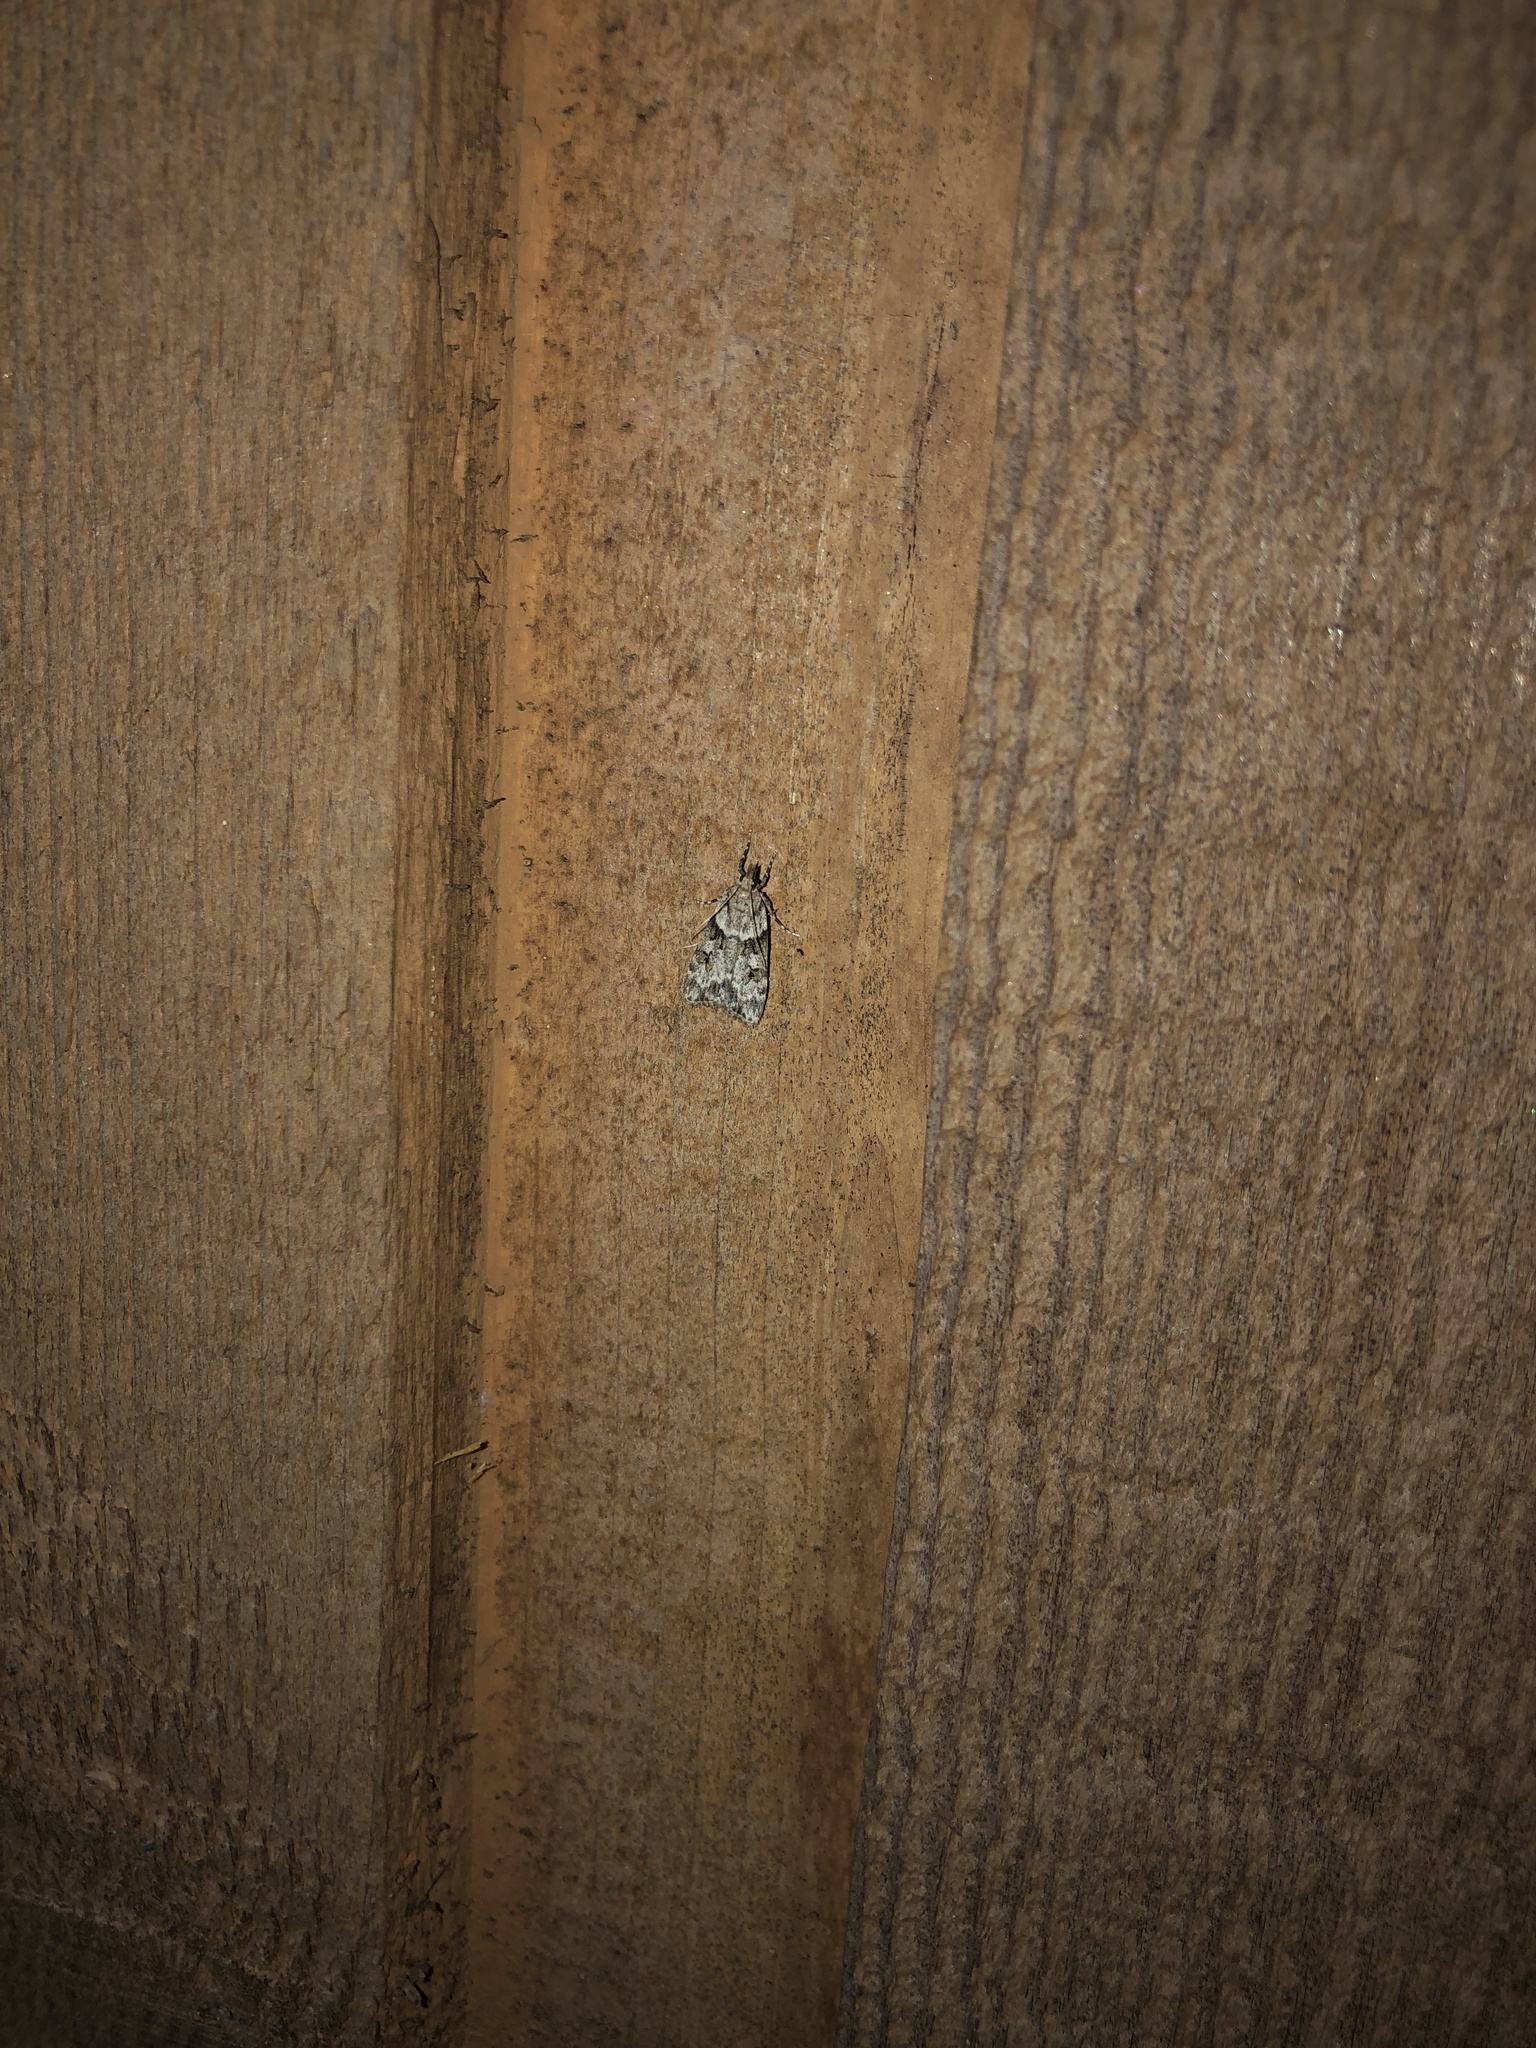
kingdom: Animalia
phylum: Arthropoda
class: Insecta
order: Lepidoptera
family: Crambidae
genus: Scoparia
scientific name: Scoparia biplagialis
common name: Double-striped scoparia moth
